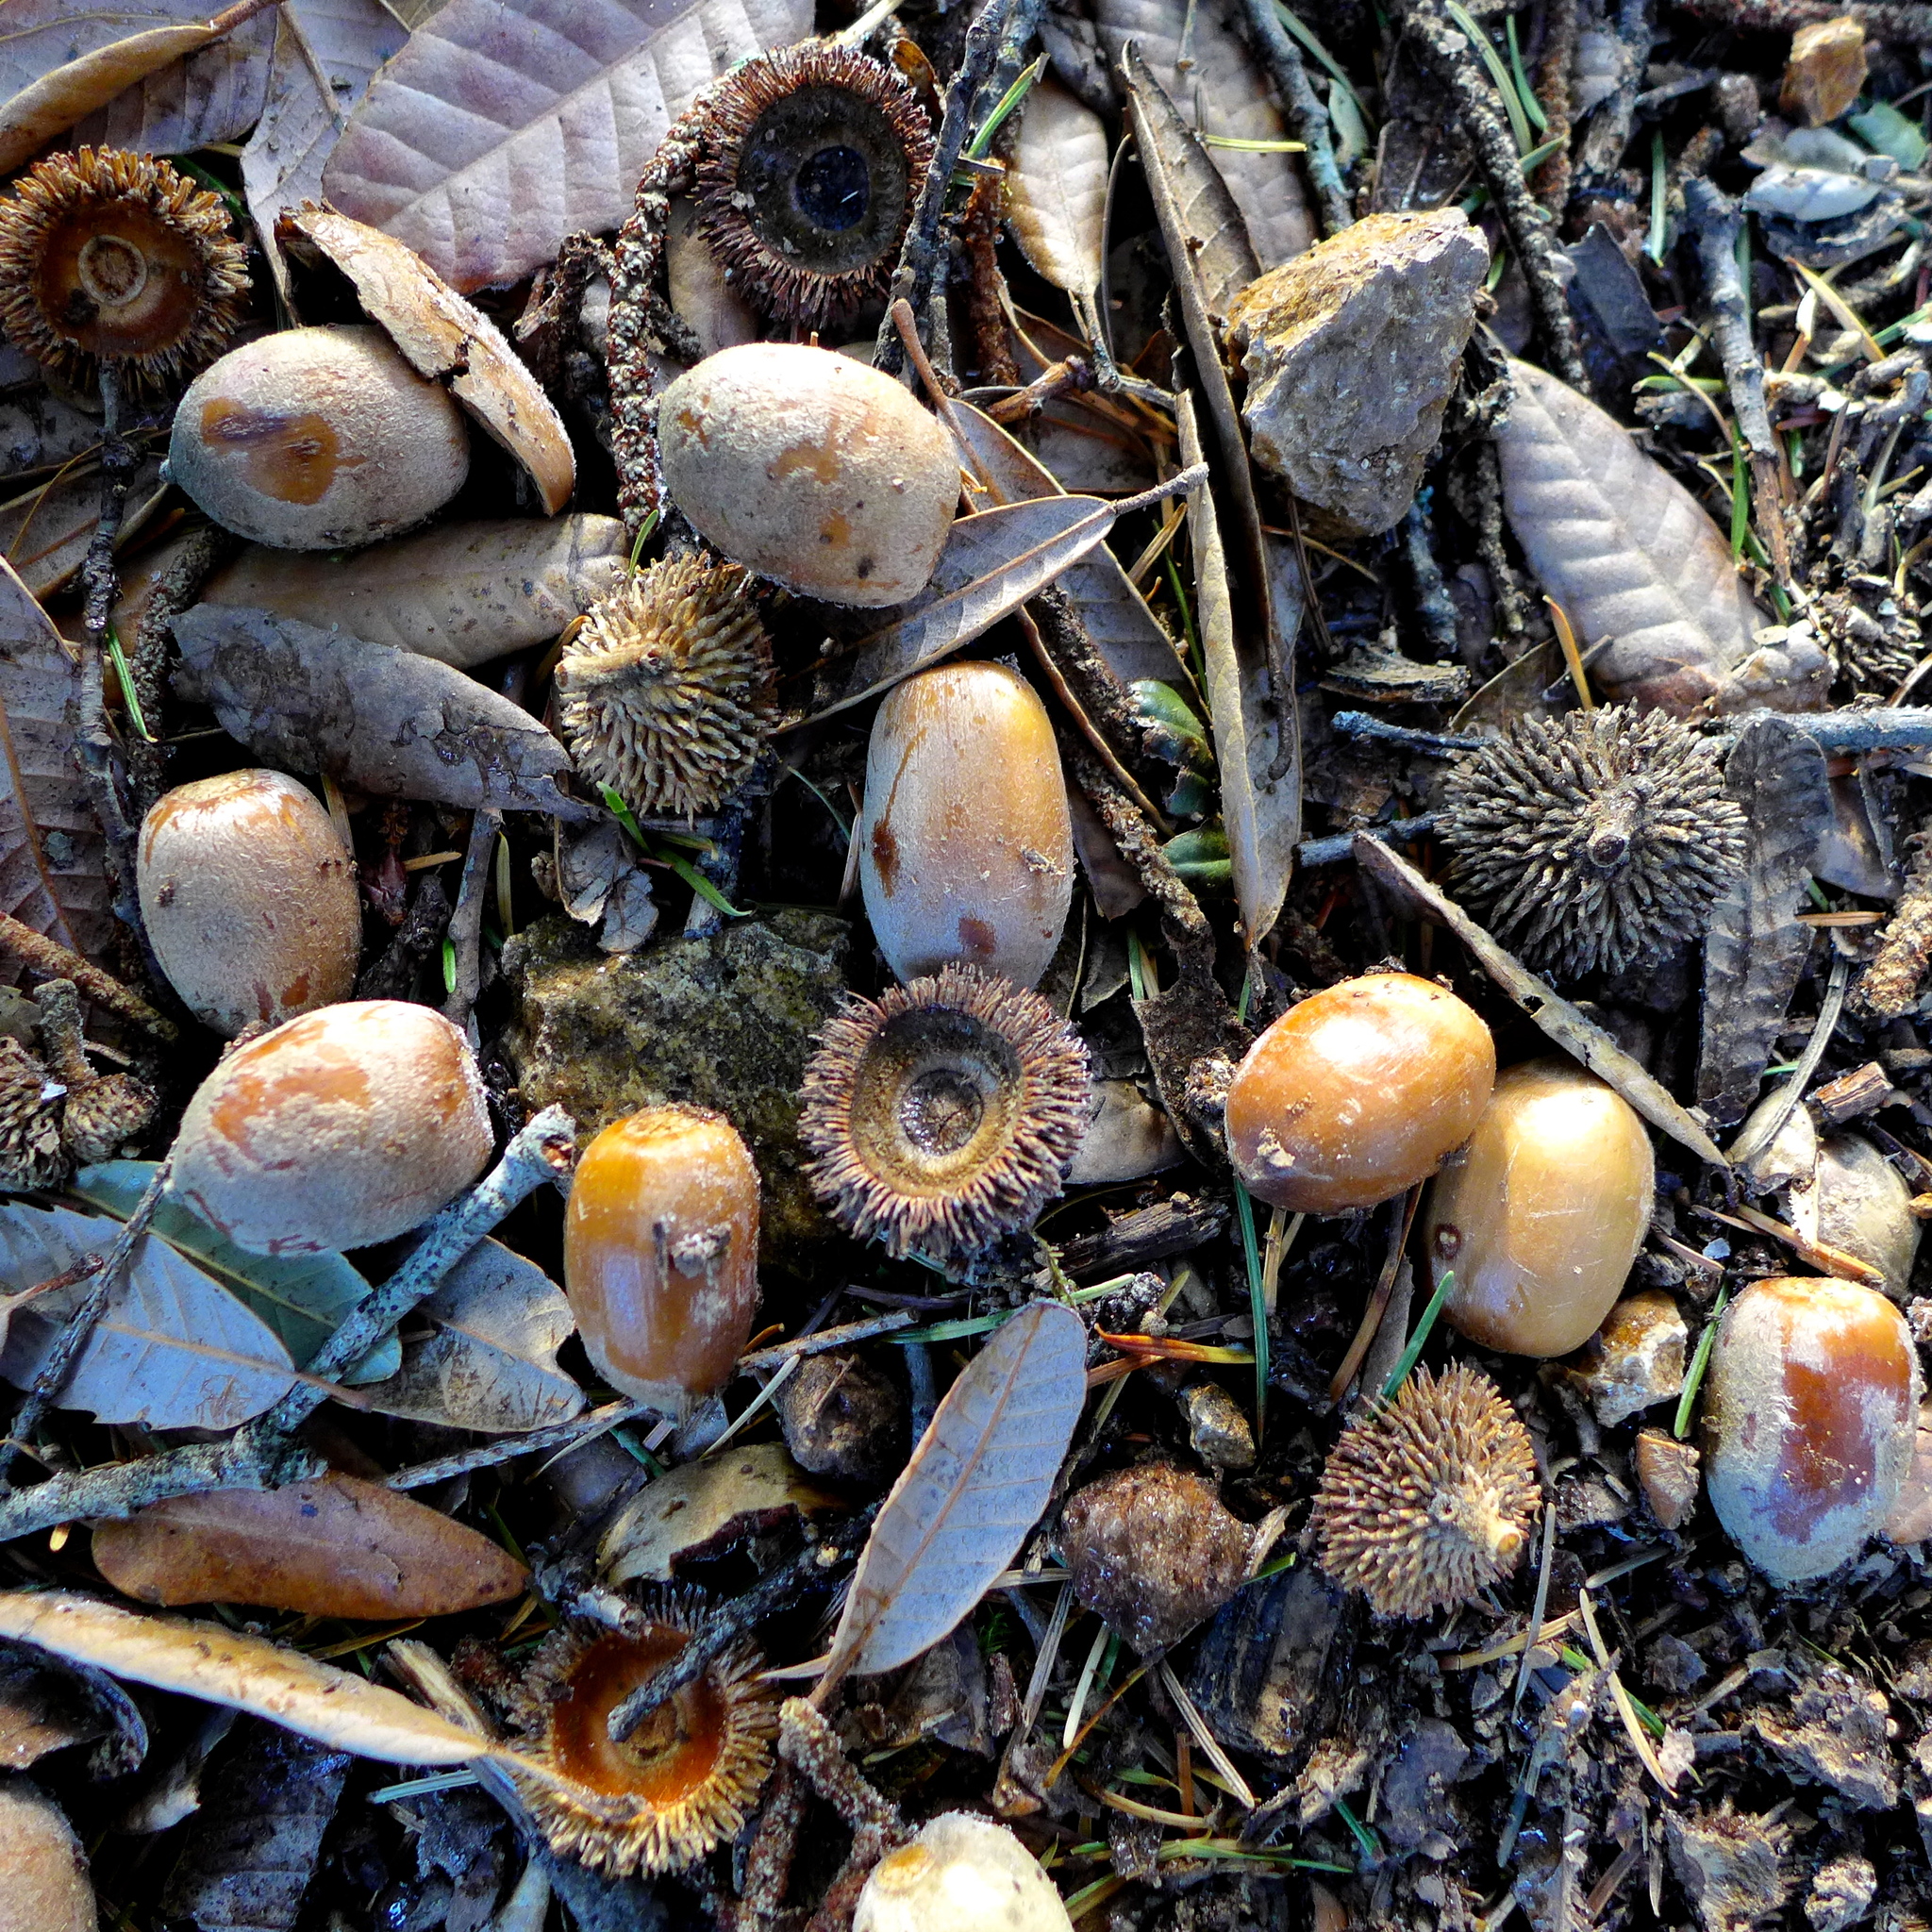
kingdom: Plantae
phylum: Tracheophyta
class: Magnoliopsida
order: Fagales
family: Fagaceae
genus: Notholithocarpus
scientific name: Notholithocarpus densiflorus
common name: Tan bark oak
